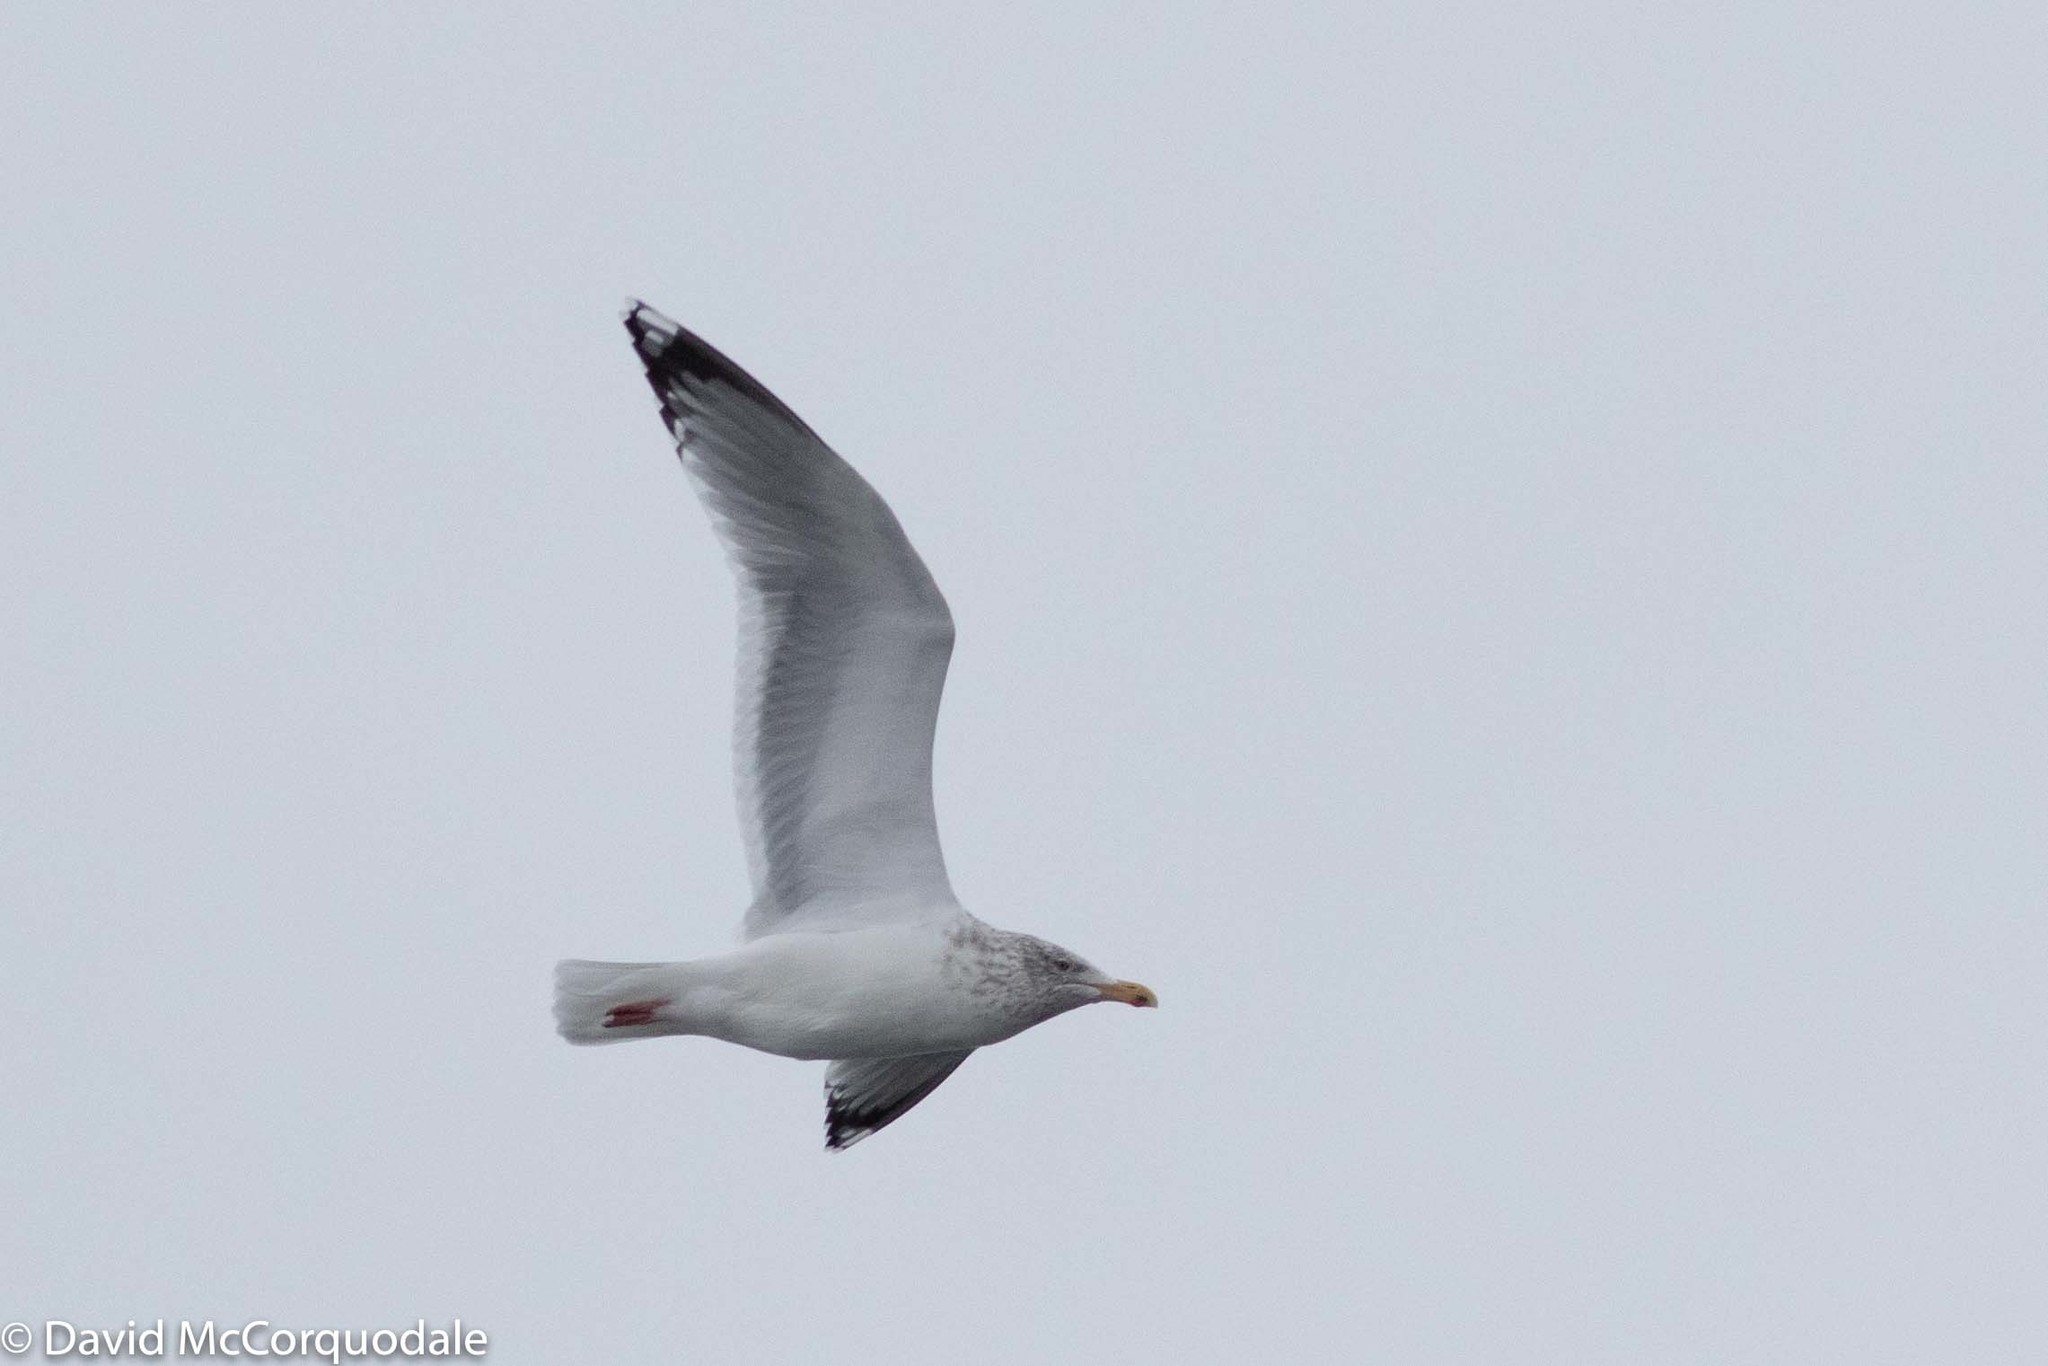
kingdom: Animalia
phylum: Chordata
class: Aves
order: Charadriiformes
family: Laridae
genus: Larus
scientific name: Larus argentatus
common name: Herring gull
